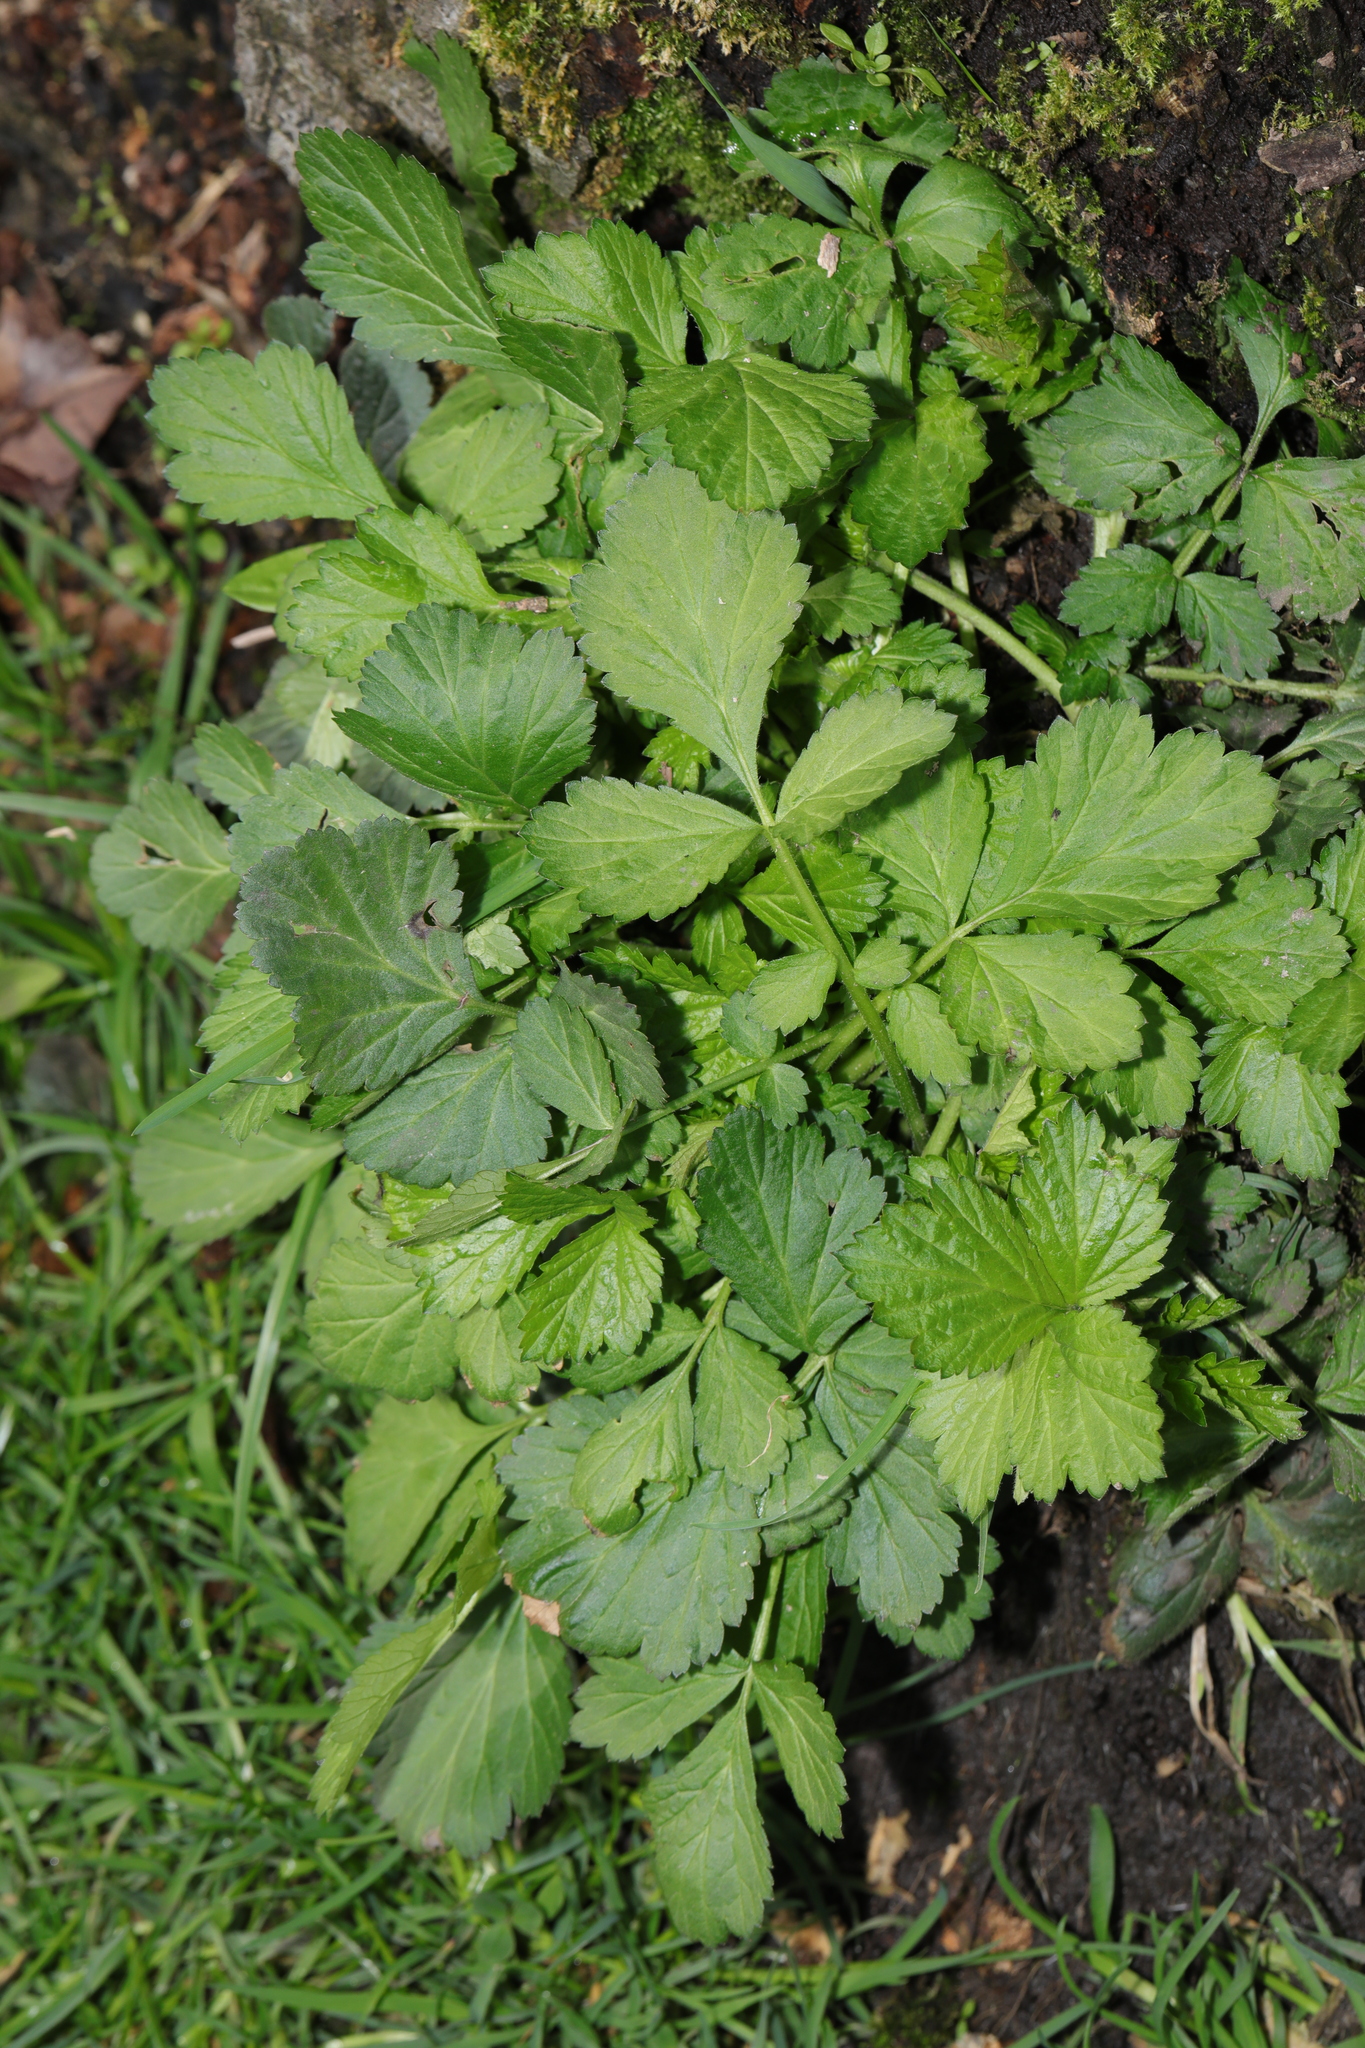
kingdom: Plantae
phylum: Tracheophyta
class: Magnoliopsida
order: Rosales
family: Rosaceae
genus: Geum
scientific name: Geum urbanum
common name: Wood avens
